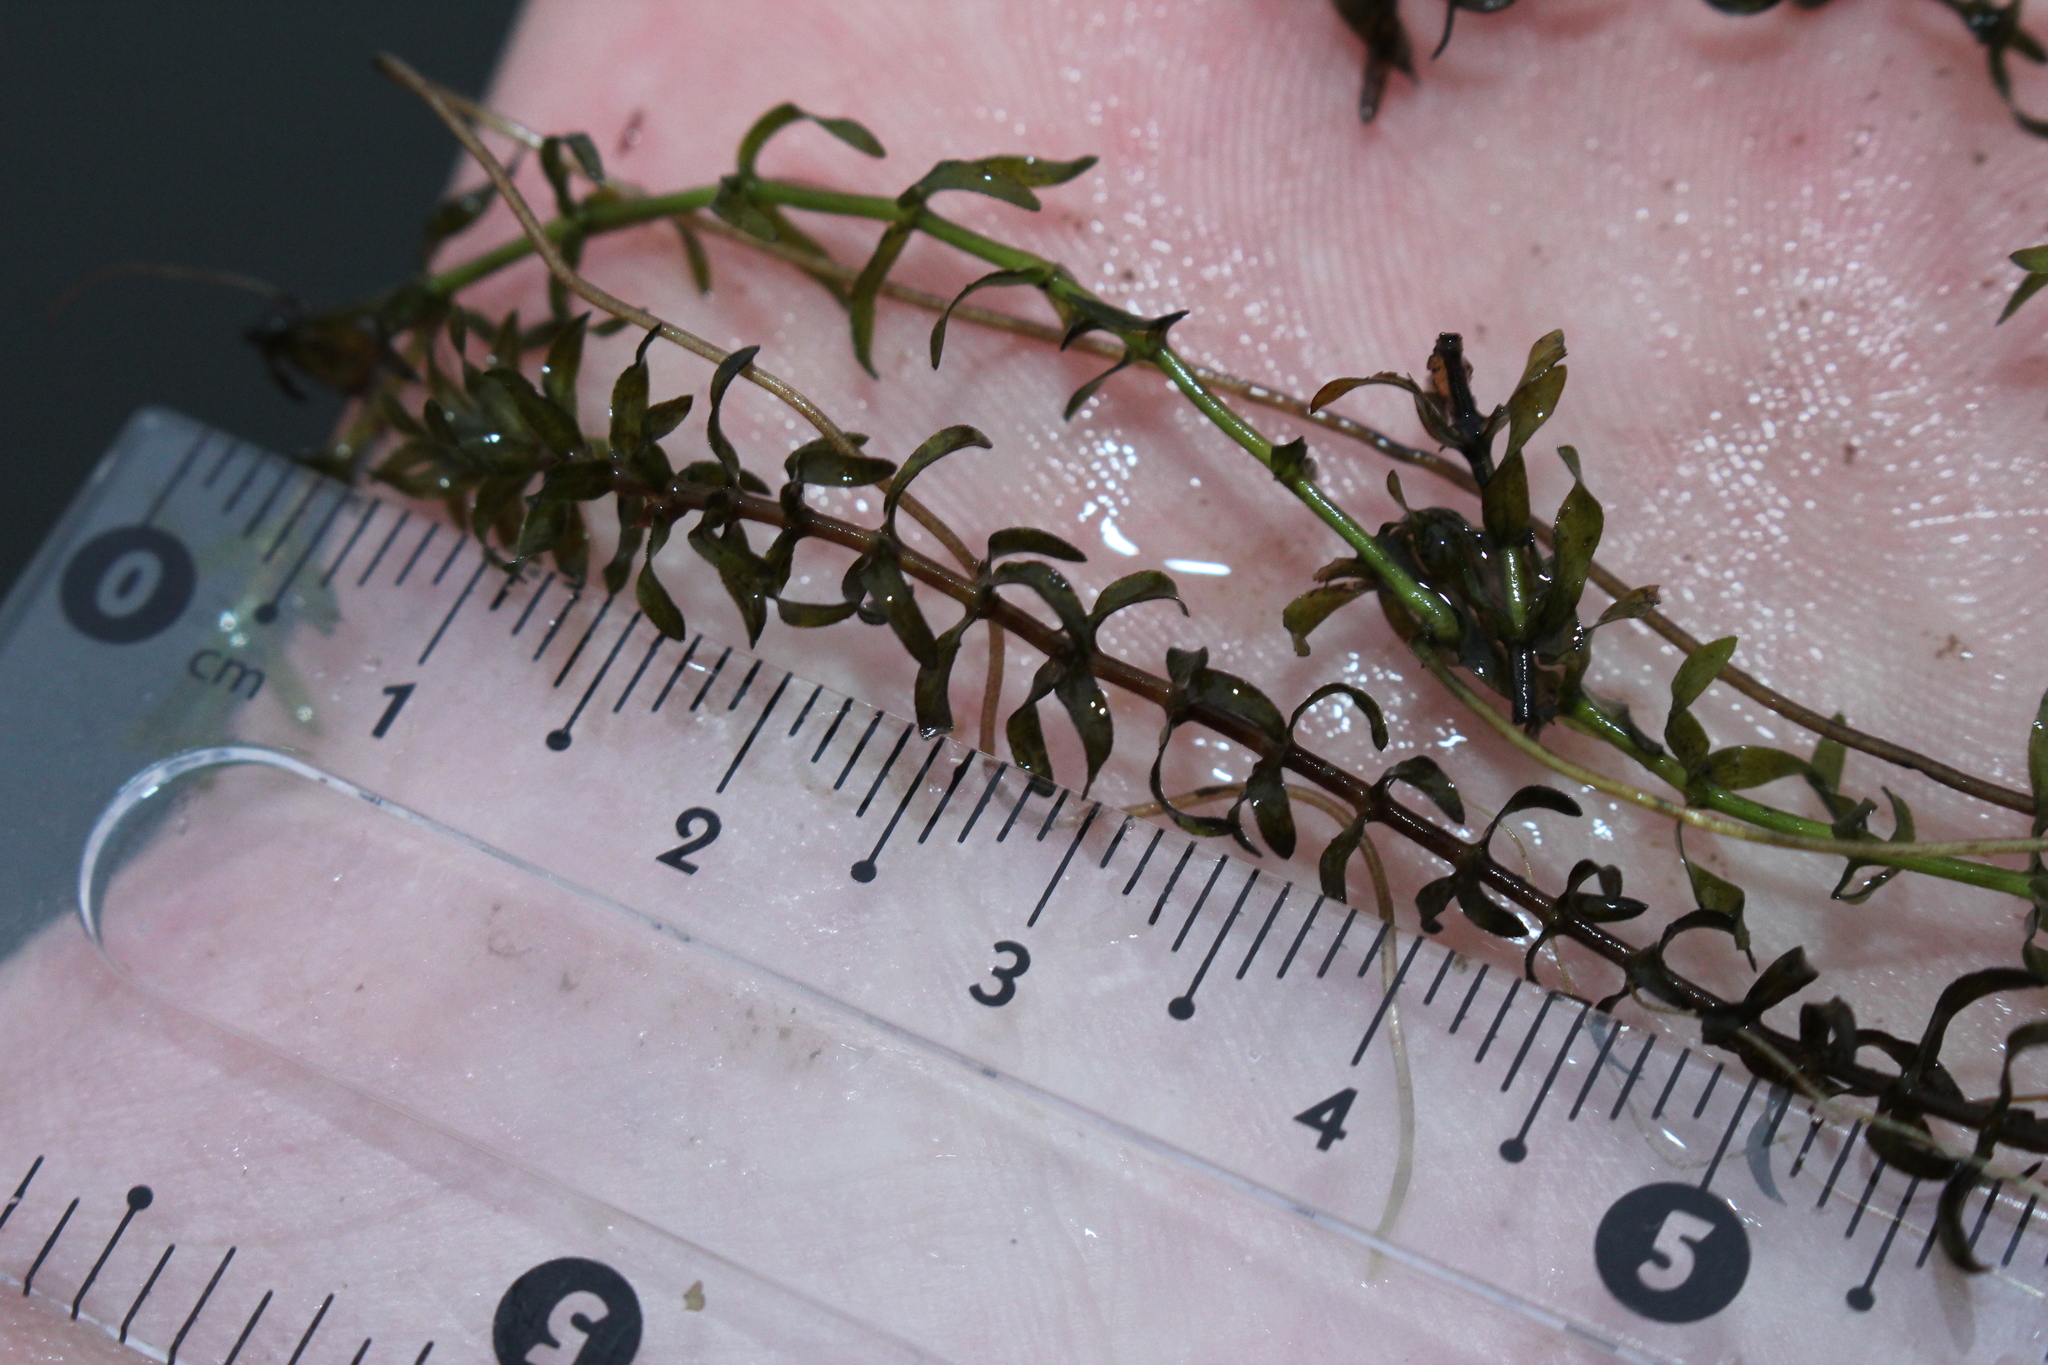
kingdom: Plantae
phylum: Tracheophyta
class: Liliopsida
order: Alismatales
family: Hydrocharitaceae
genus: Elodea
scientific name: Elodea canadensis
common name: Canadian waterweed
